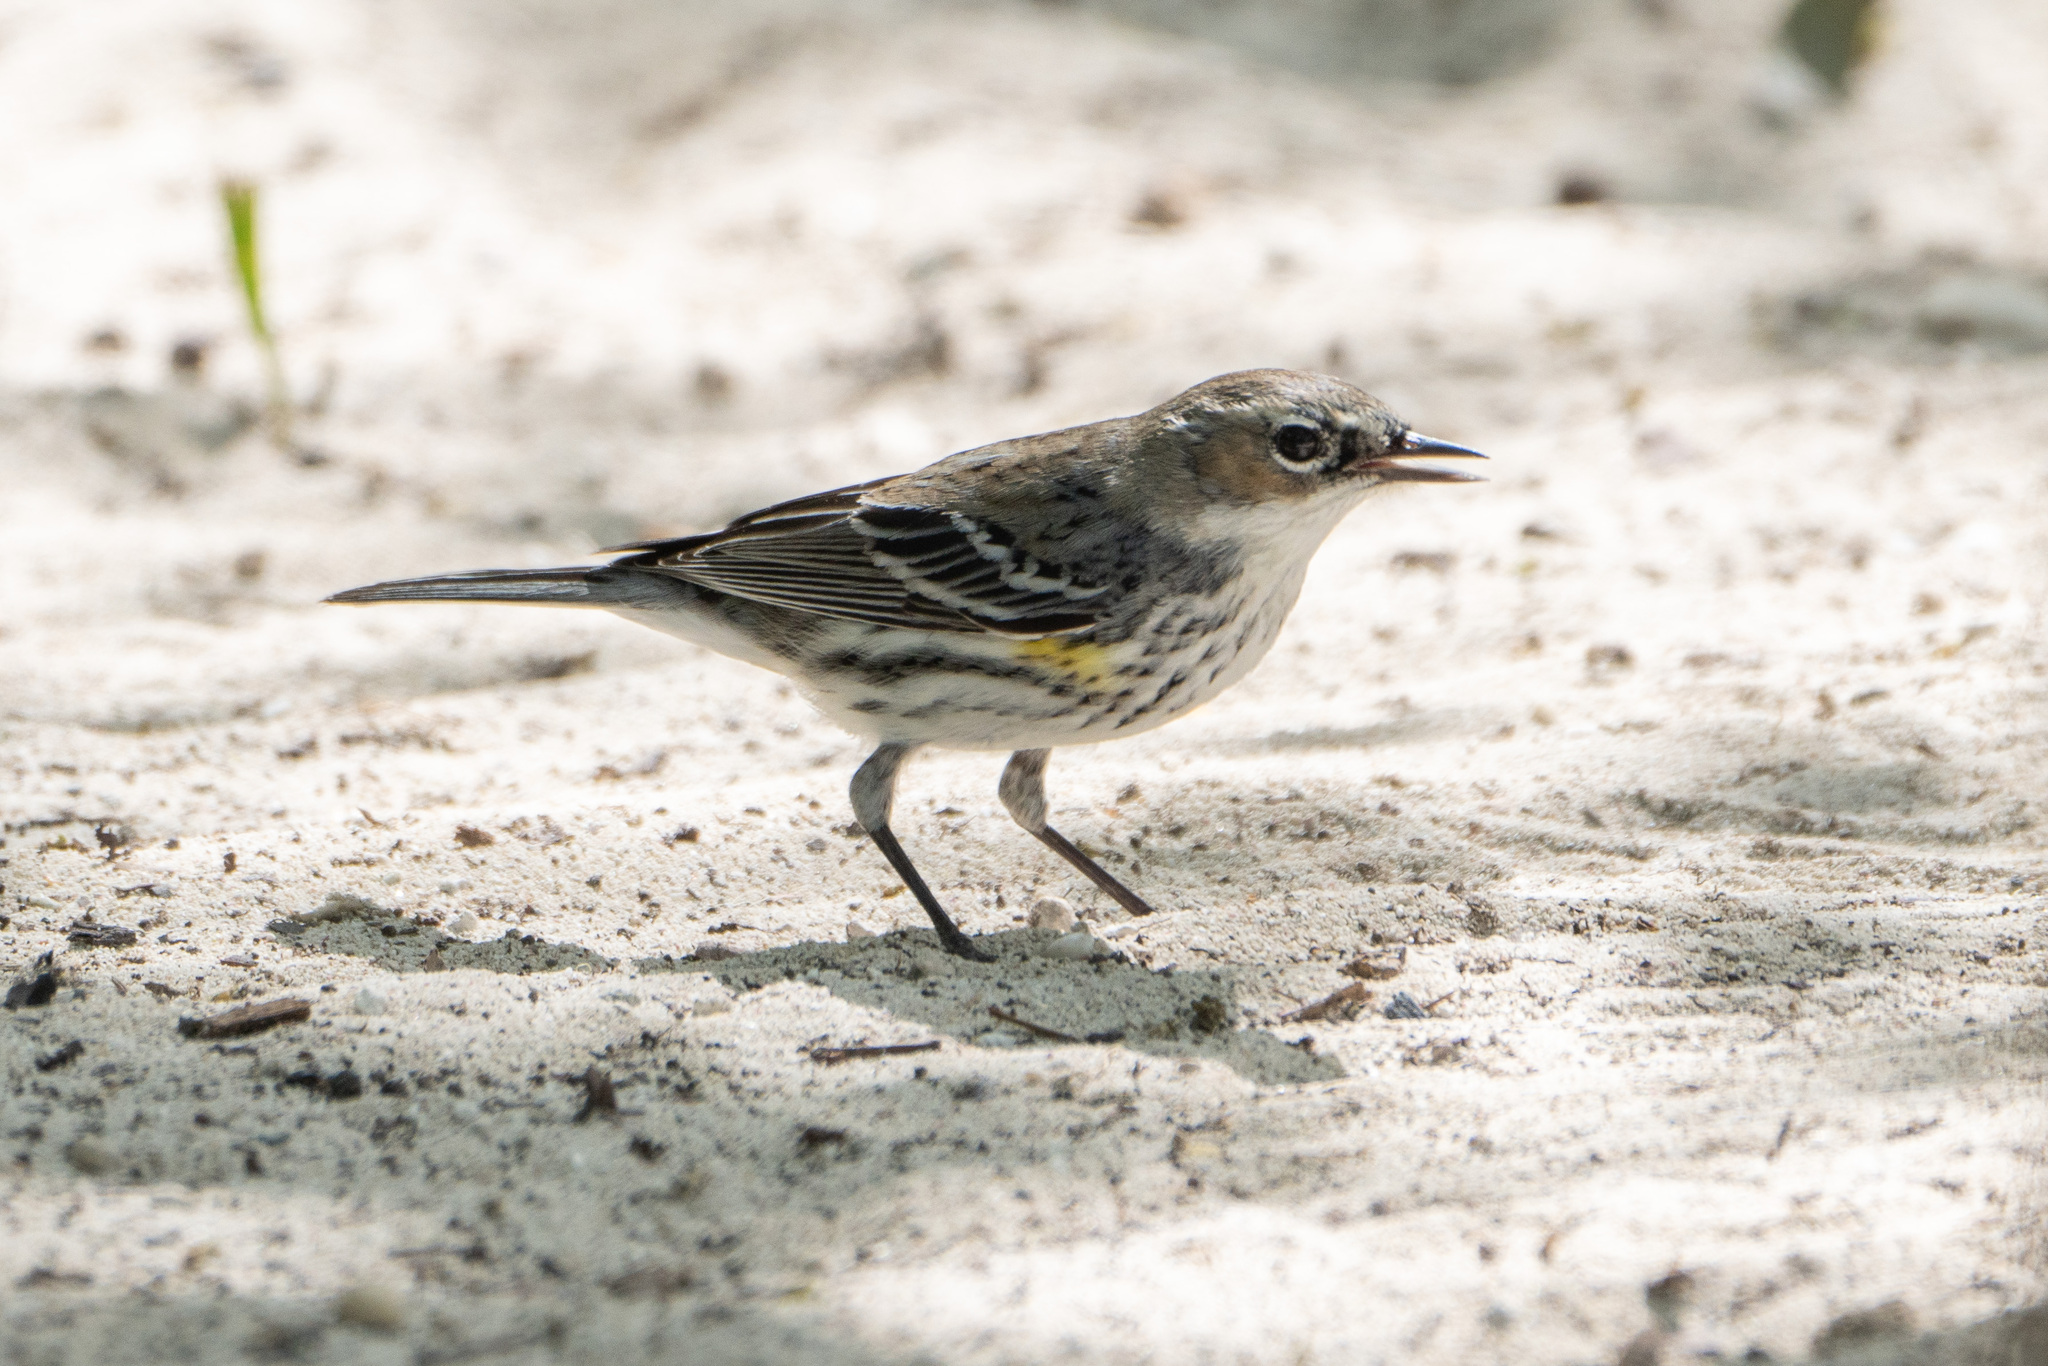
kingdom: Animalia
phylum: Chordata
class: Aves
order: Passeriformes
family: Parulidae
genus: Setophaga
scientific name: Setophaga coronata
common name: Myrtle warbler
